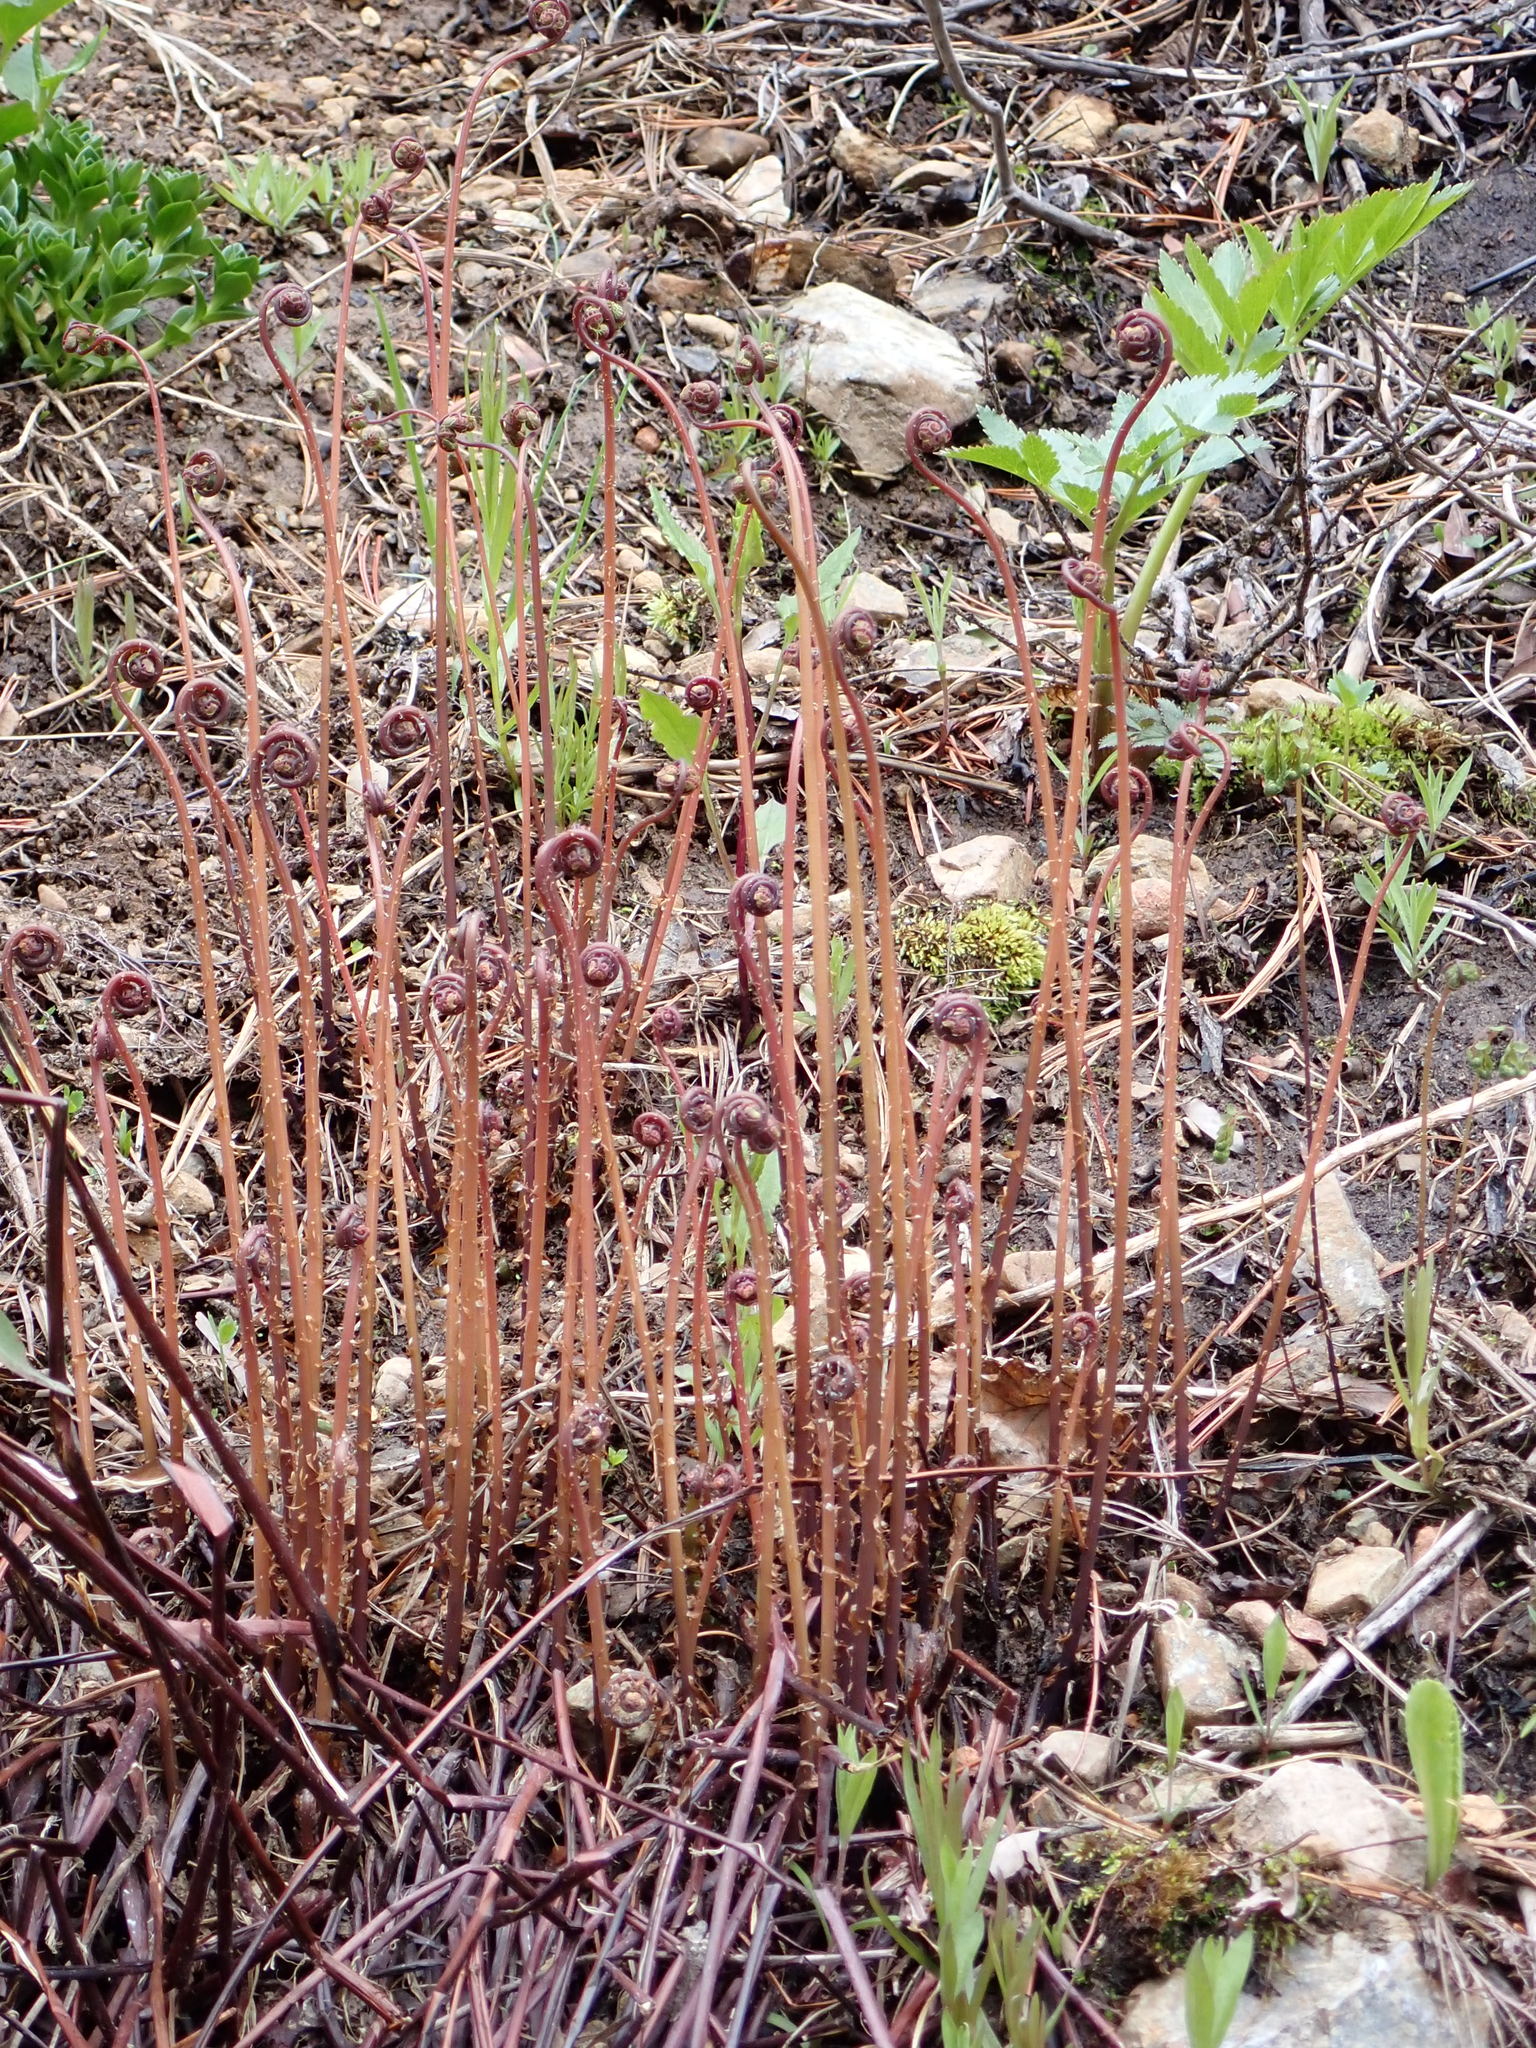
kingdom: Plantae
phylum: Tracheophyta
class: Polypodiopsida
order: Polypodiales
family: Pteridaceae
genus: Adiantum
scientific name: Adiantum aleuticum
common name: Aleutian maidenhair fern
